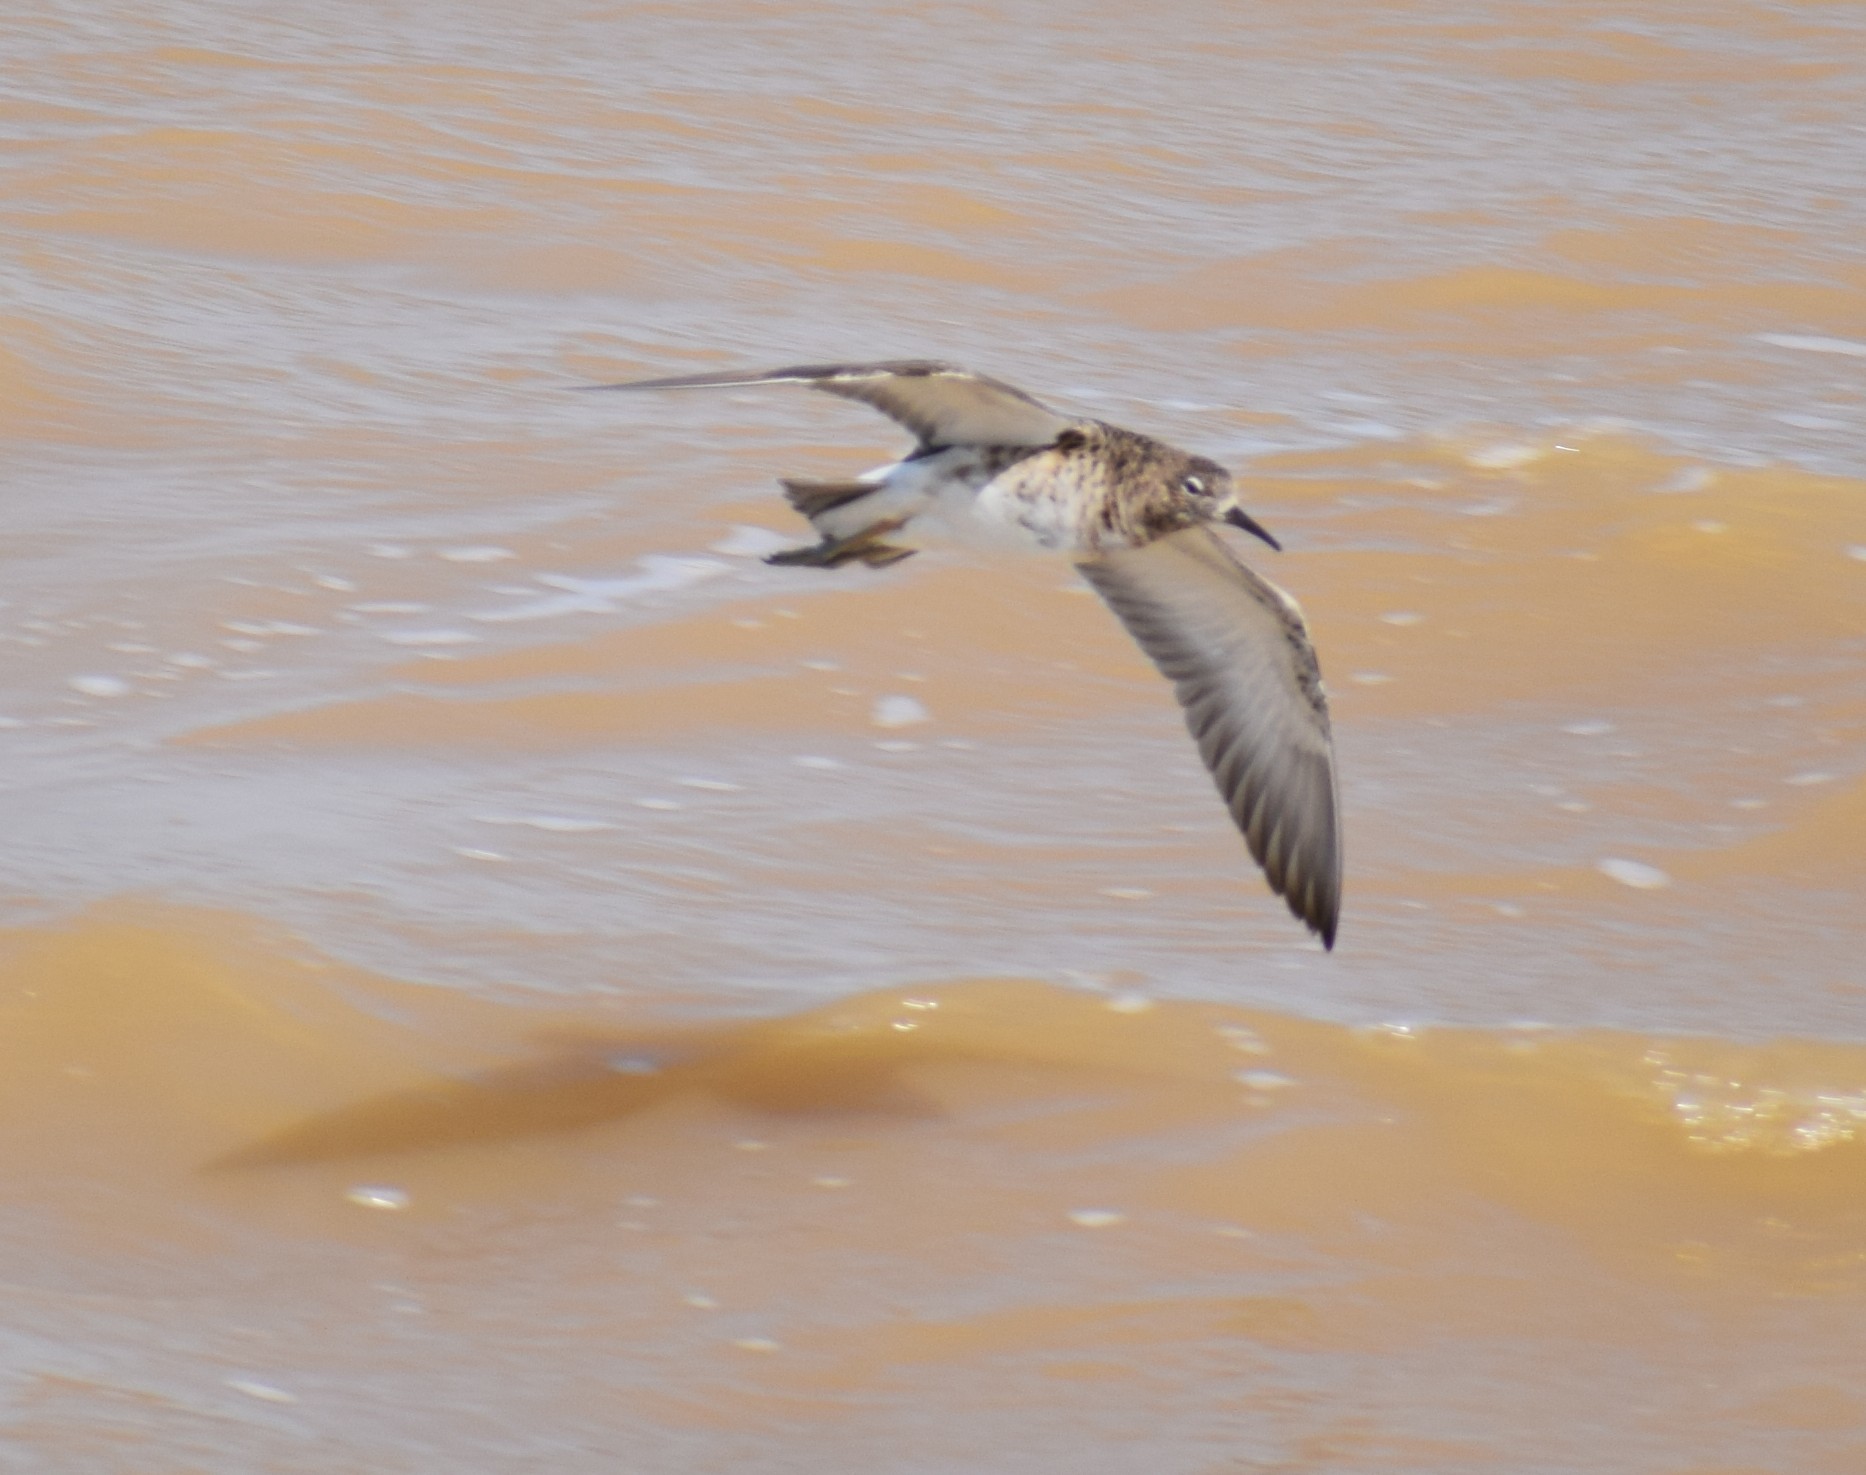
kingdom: Animalia
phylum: Chordata
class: Aves
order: Charadriiformes
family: Scolopacidae
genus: Calidris
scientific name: Calidris pugnax
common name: Ruff
